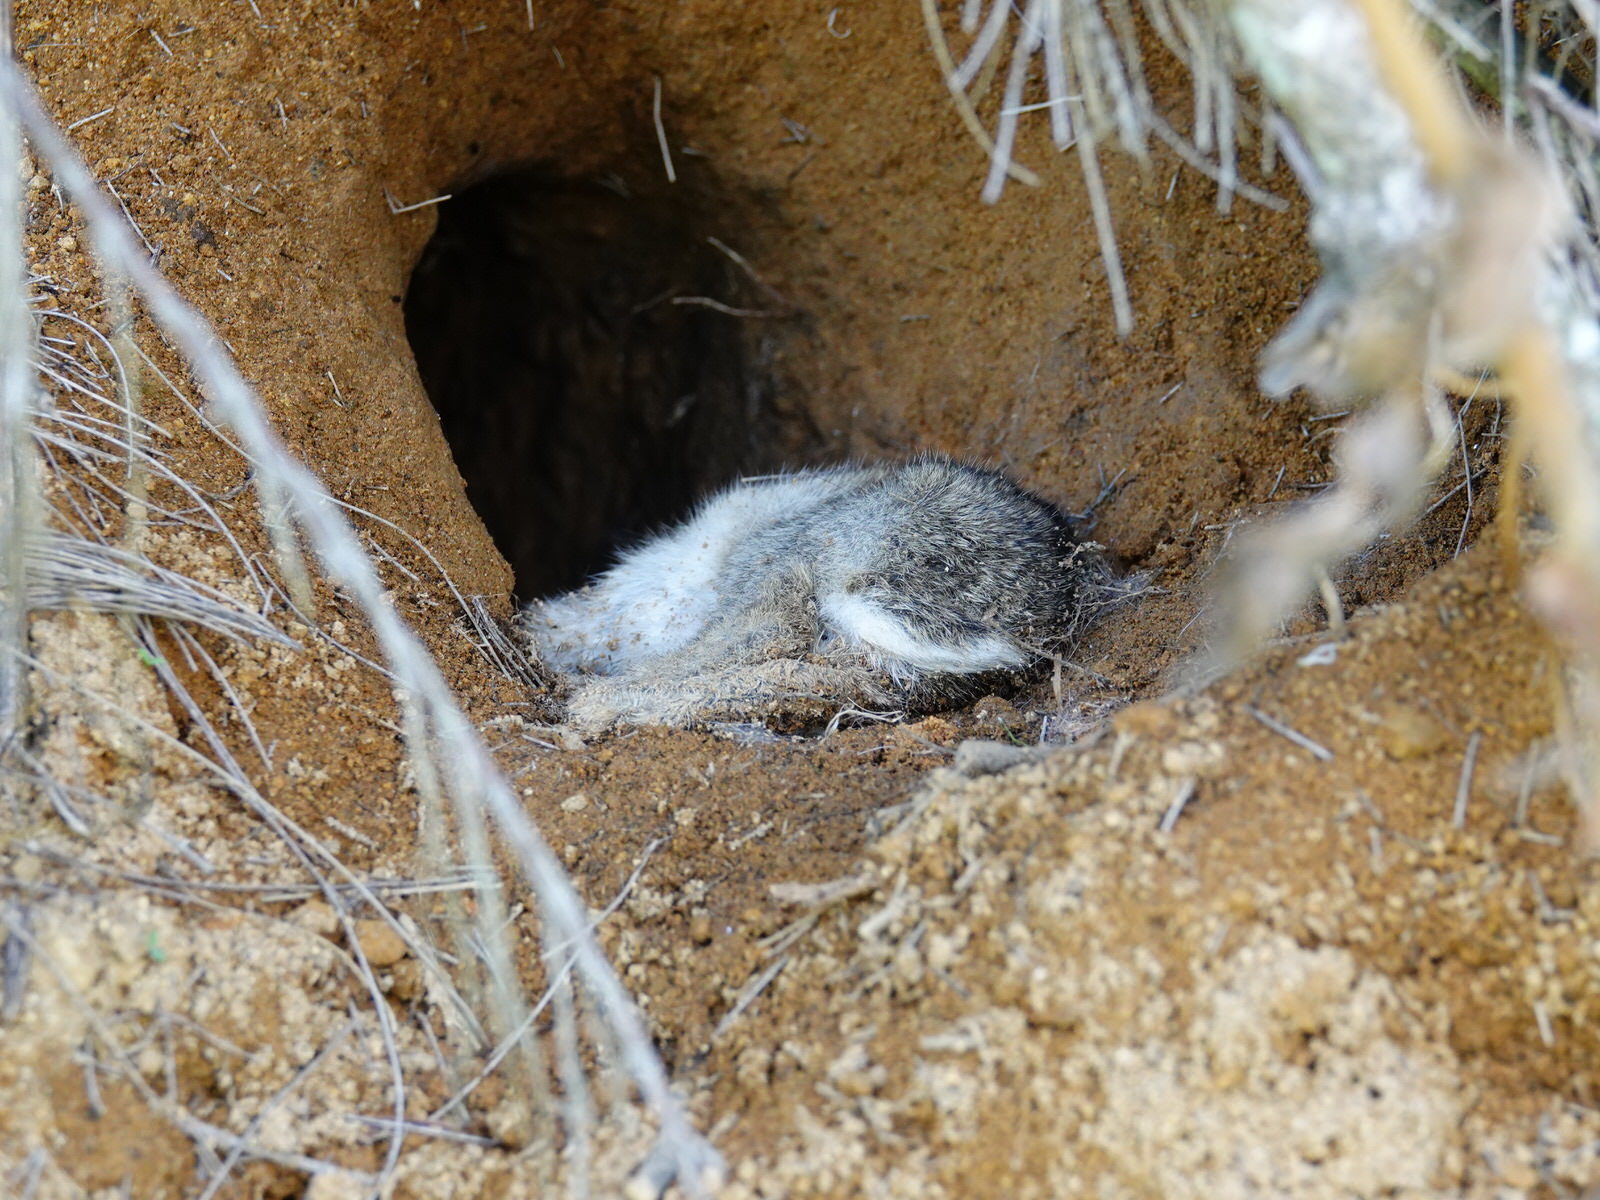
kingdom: Animalia
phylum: Chordata
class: Mammalia
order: Lagomorpha
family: Leporidae
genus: Oryctolagus
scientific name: Oryctolagus cuniculus
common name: European rabbit
